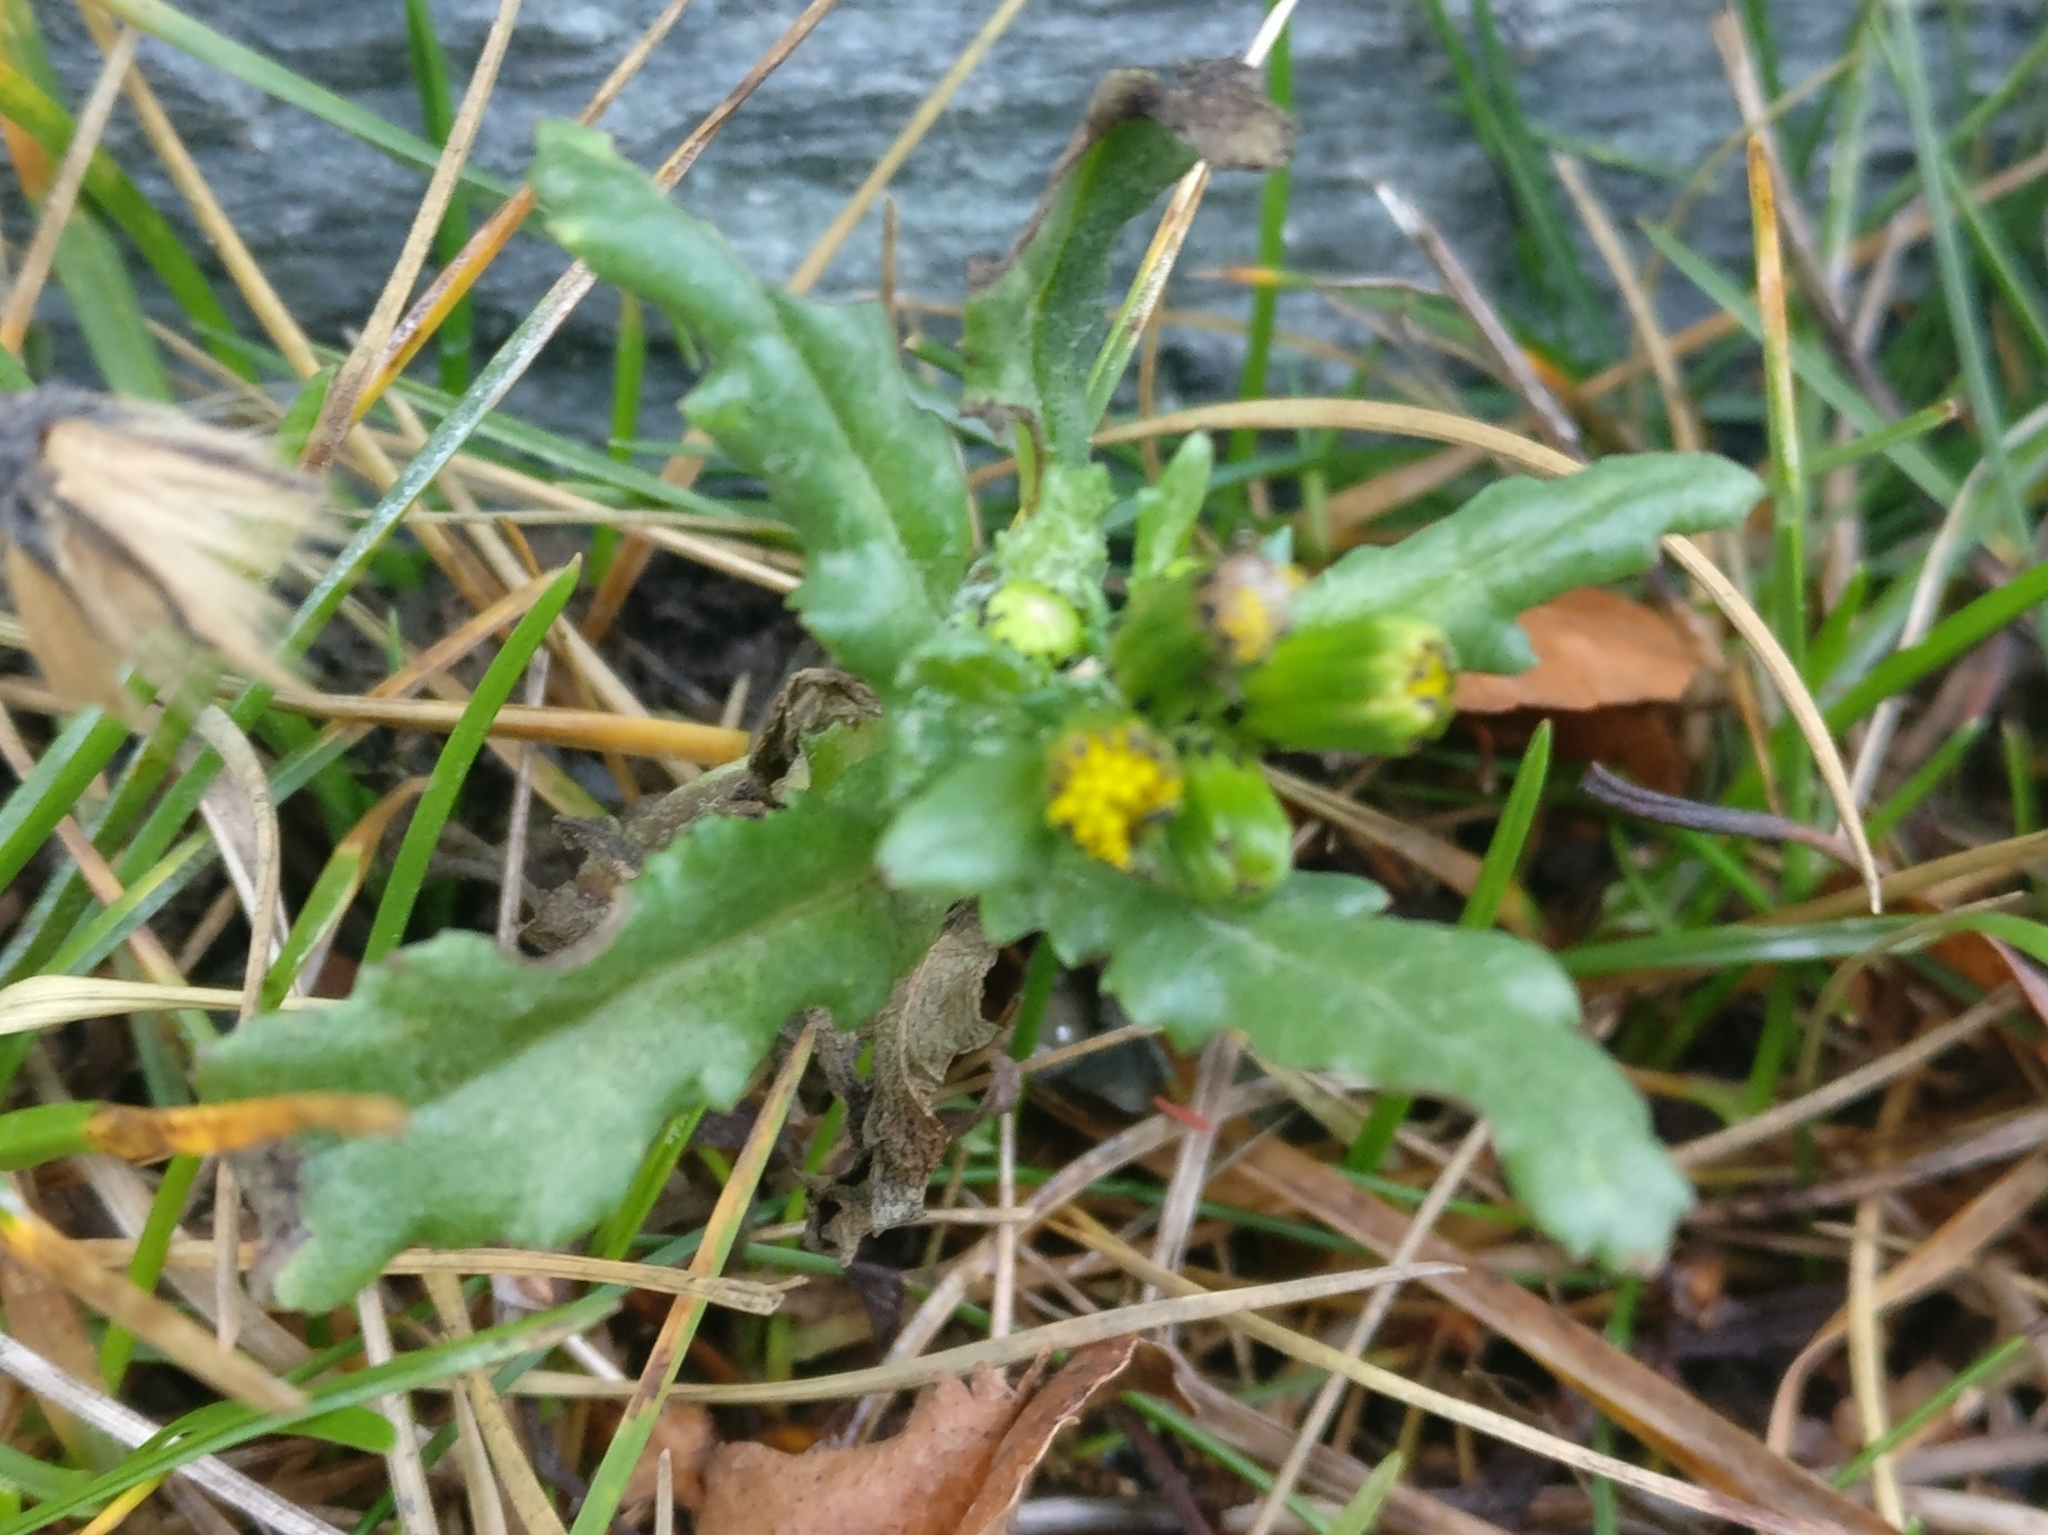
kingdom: Plantae
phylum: Tracheophyta
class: Magnoliopsida
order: Asterales
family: Asteraceae
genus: Senecio
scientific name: Senecio vulgaris
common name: Old-man-in-the-spring
